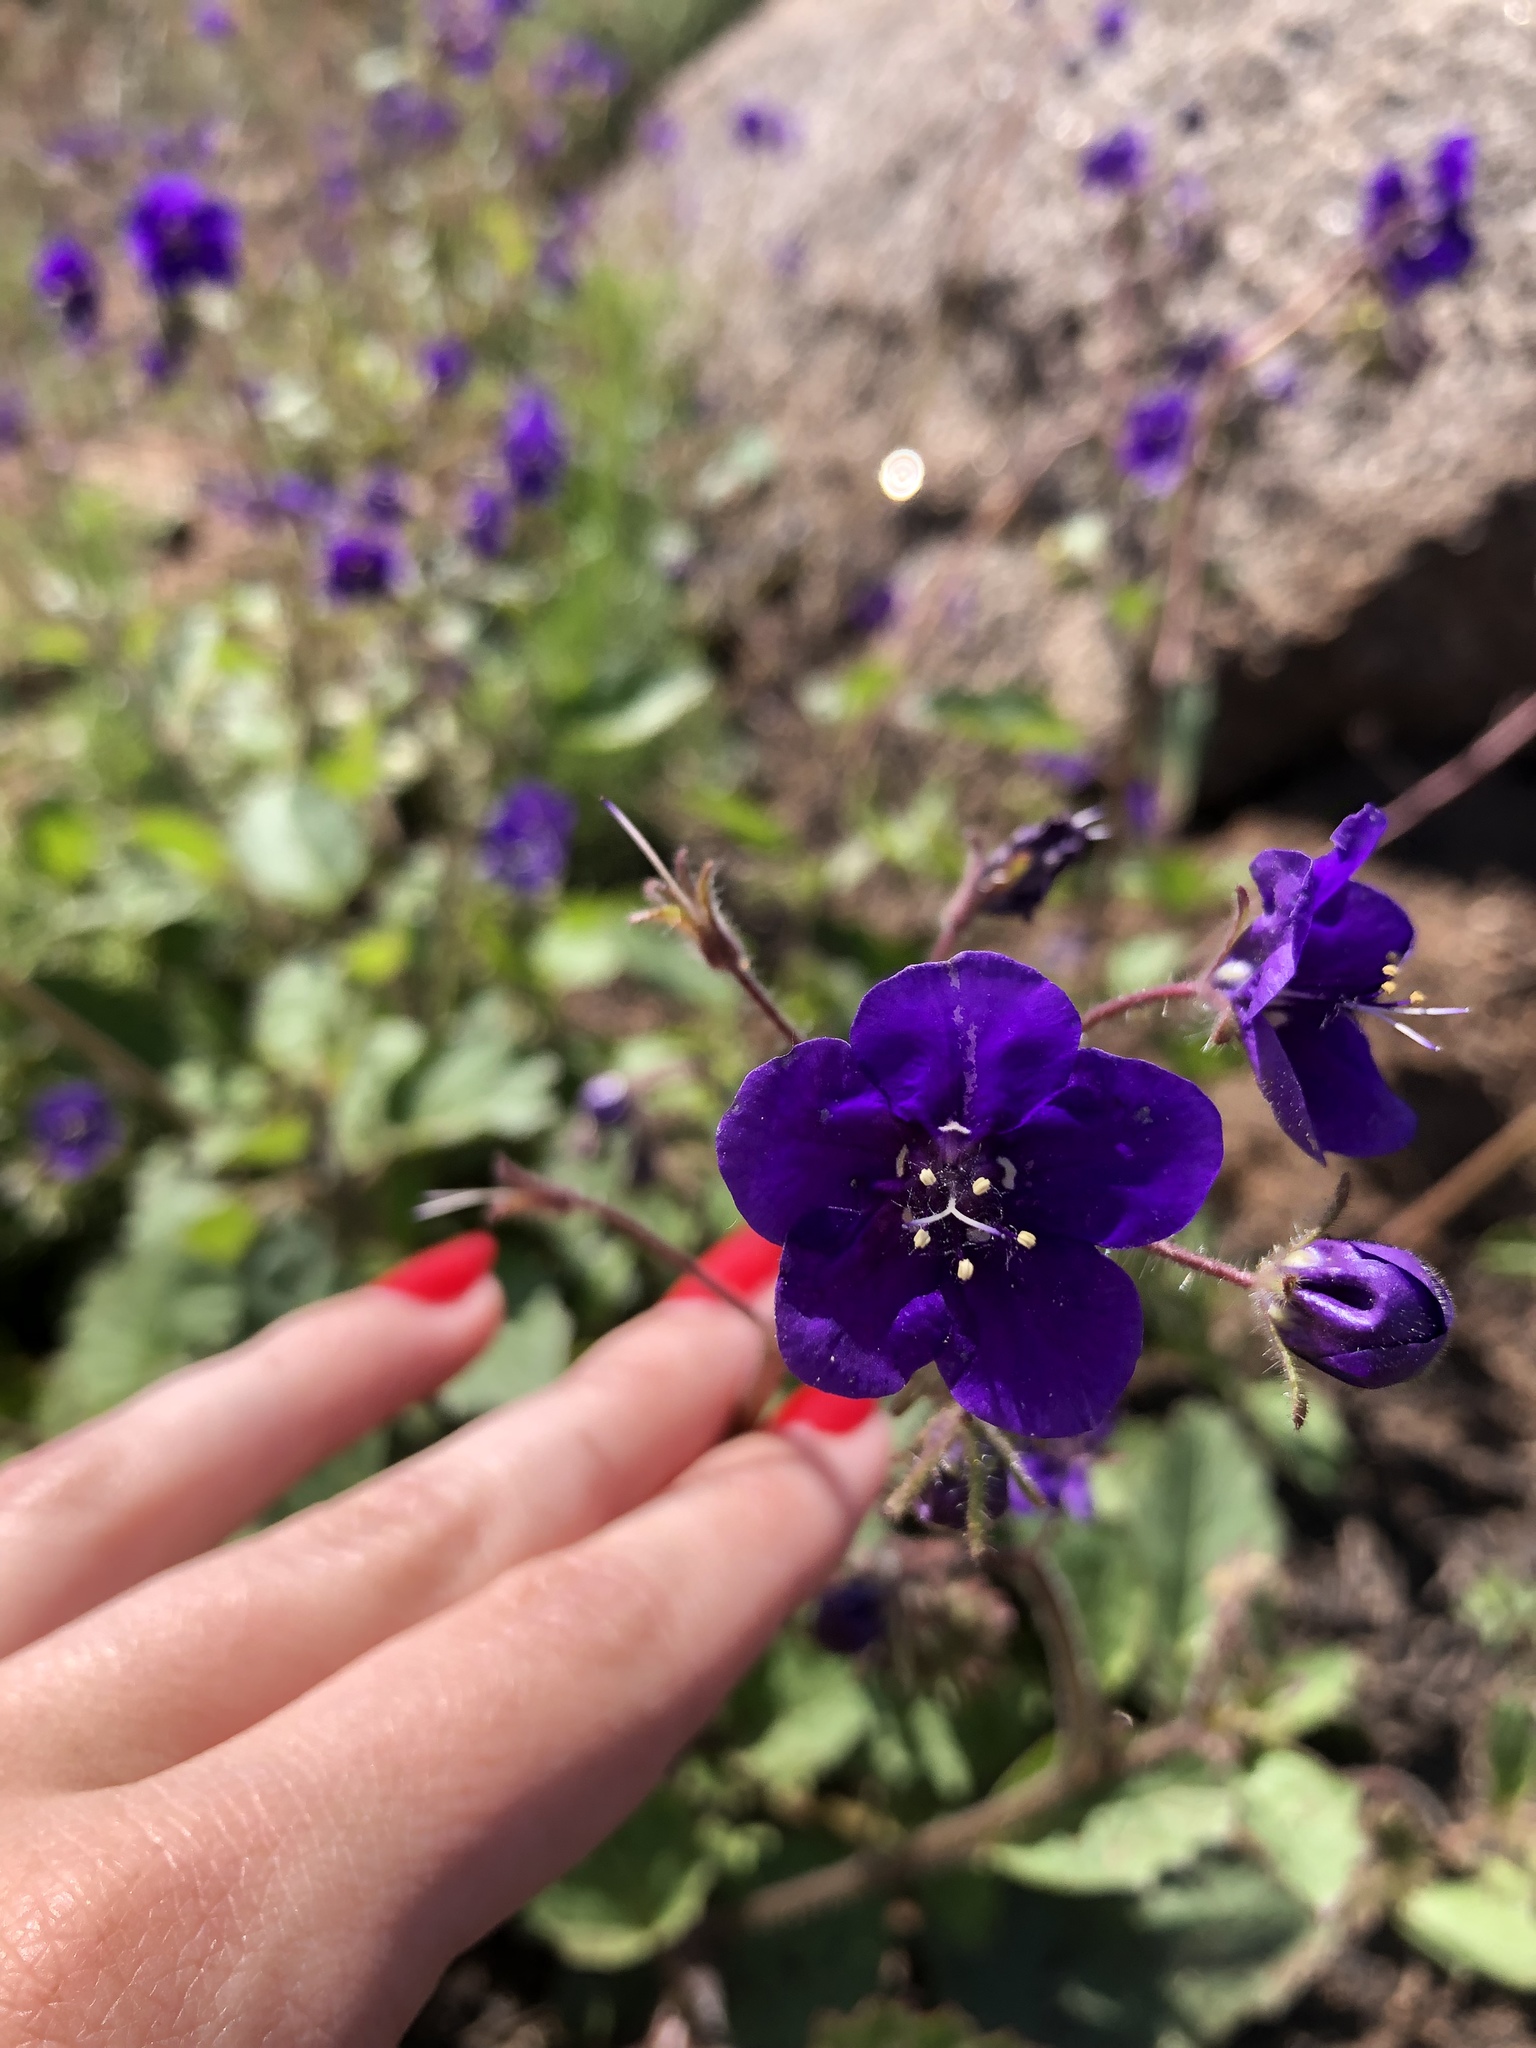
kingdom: Plantae
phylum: Tracheophyta
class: Magnoliopsida
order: Boraginales
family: Hydrophyllaceae
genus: Phacelia
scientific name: Phacelia parryi
